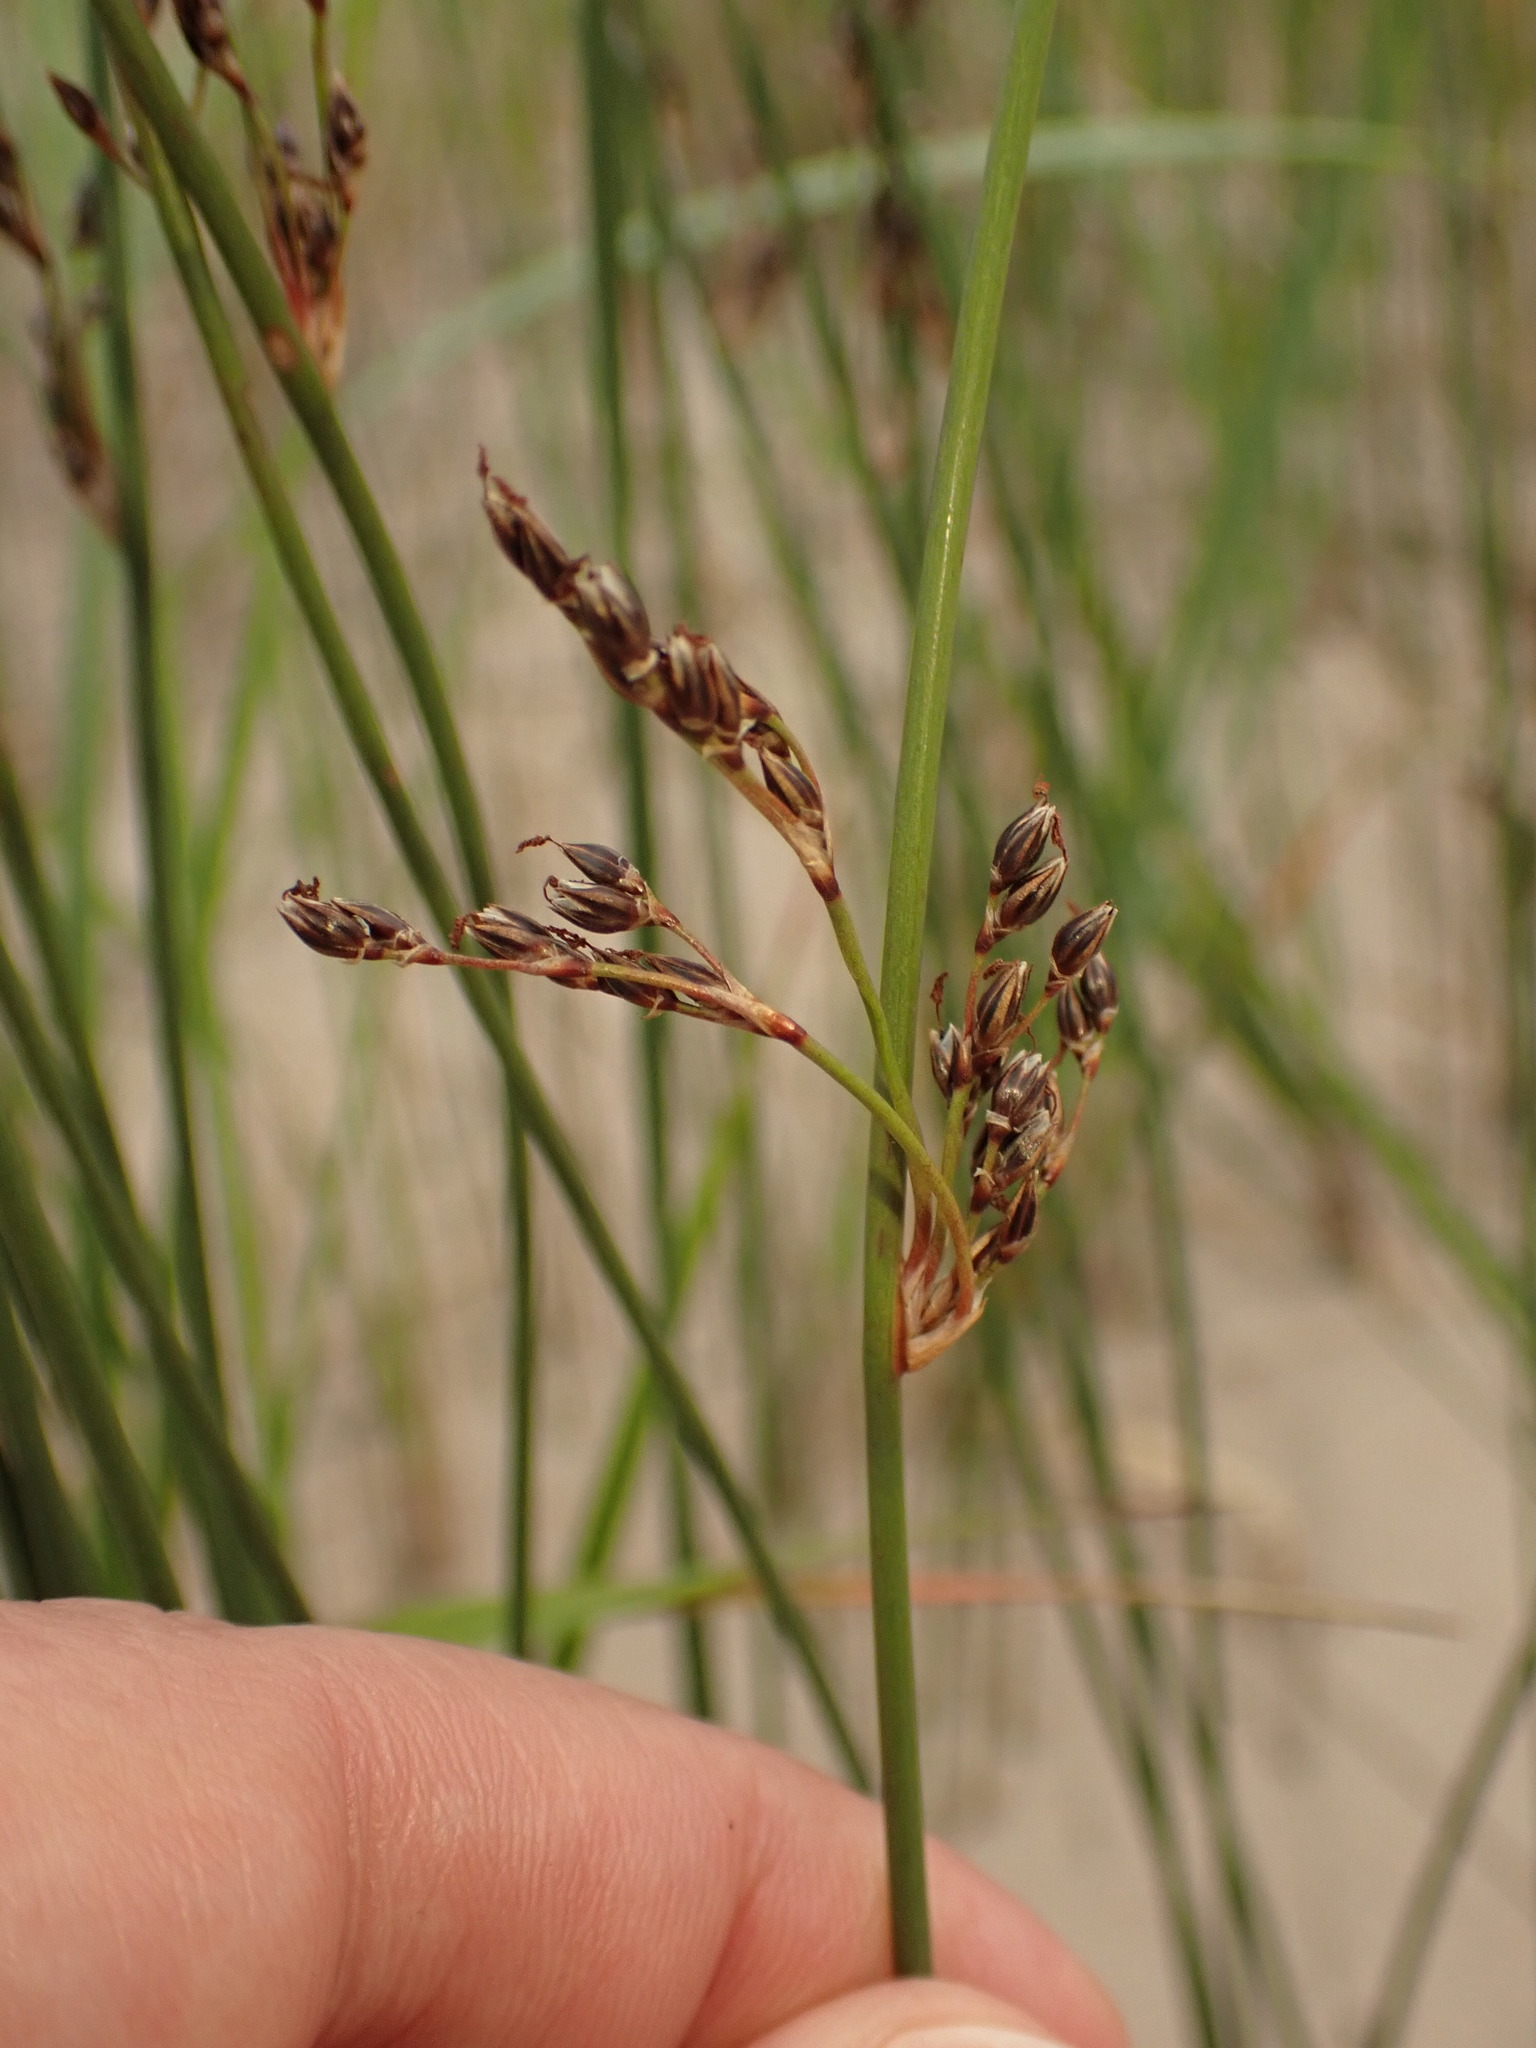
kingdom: Plantae
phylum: Tracheophyta
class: Liliopsida
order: Poales
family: Juncaceae
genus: Juncus
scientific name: Juncus balticus
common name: Baltic rush
